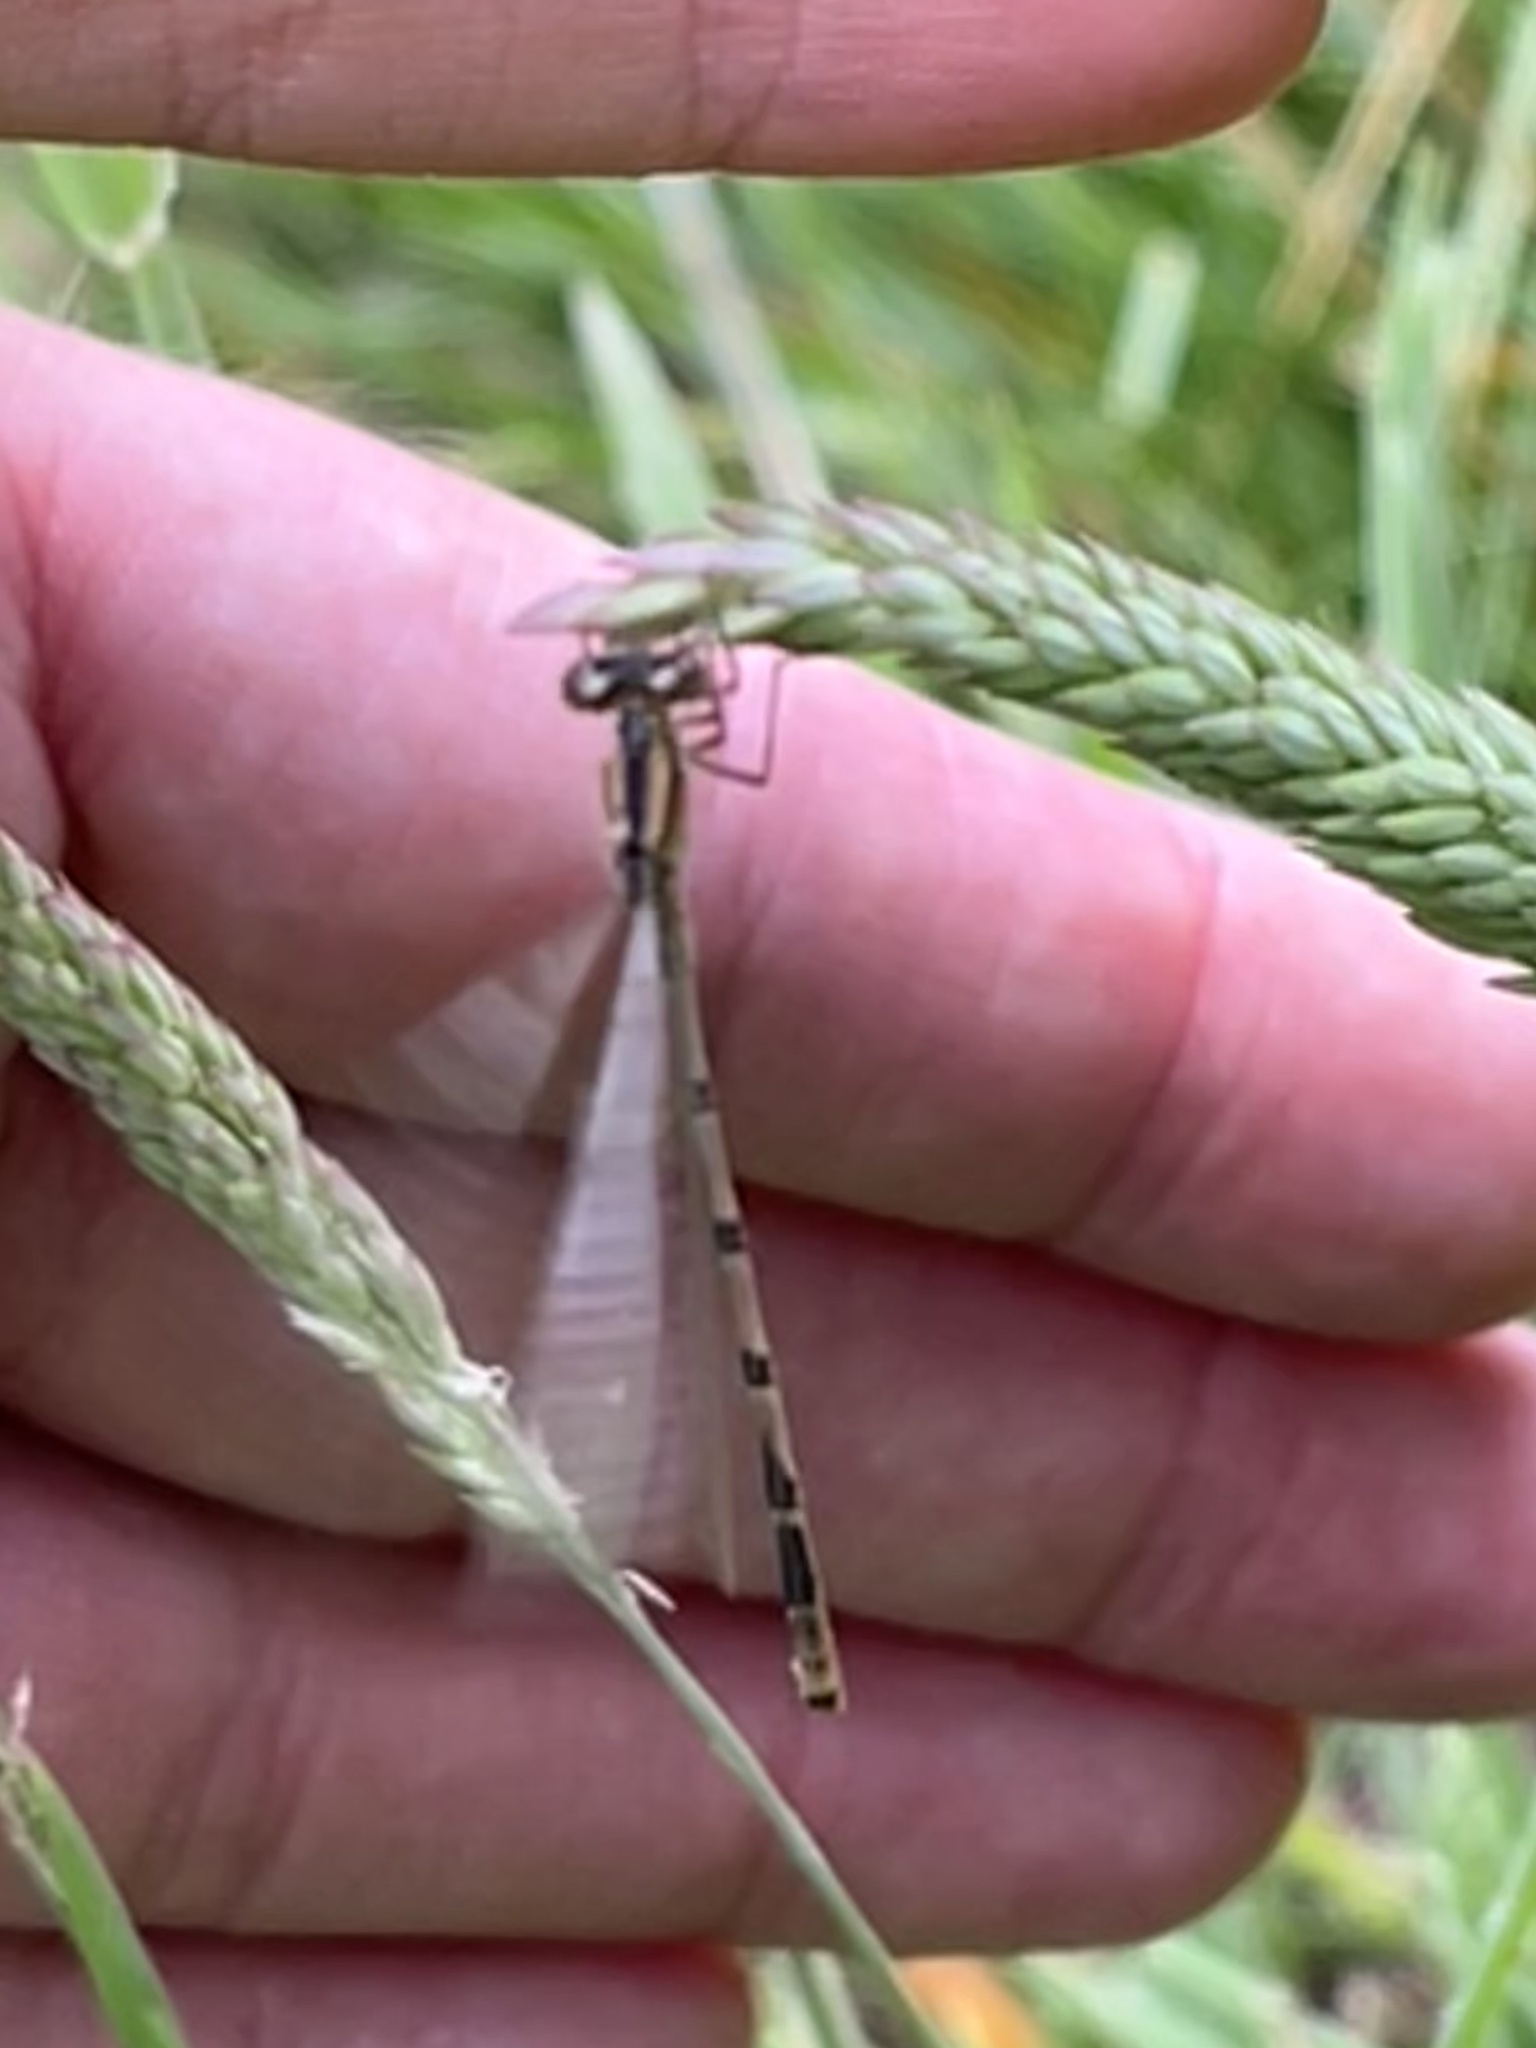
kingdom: Animalia
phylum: Arthropoda
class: Insecta
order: Odonata
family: Coenagrionidae
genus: Enallagma
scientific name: Enallagma cyathigerum
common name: Common blue damselfly
